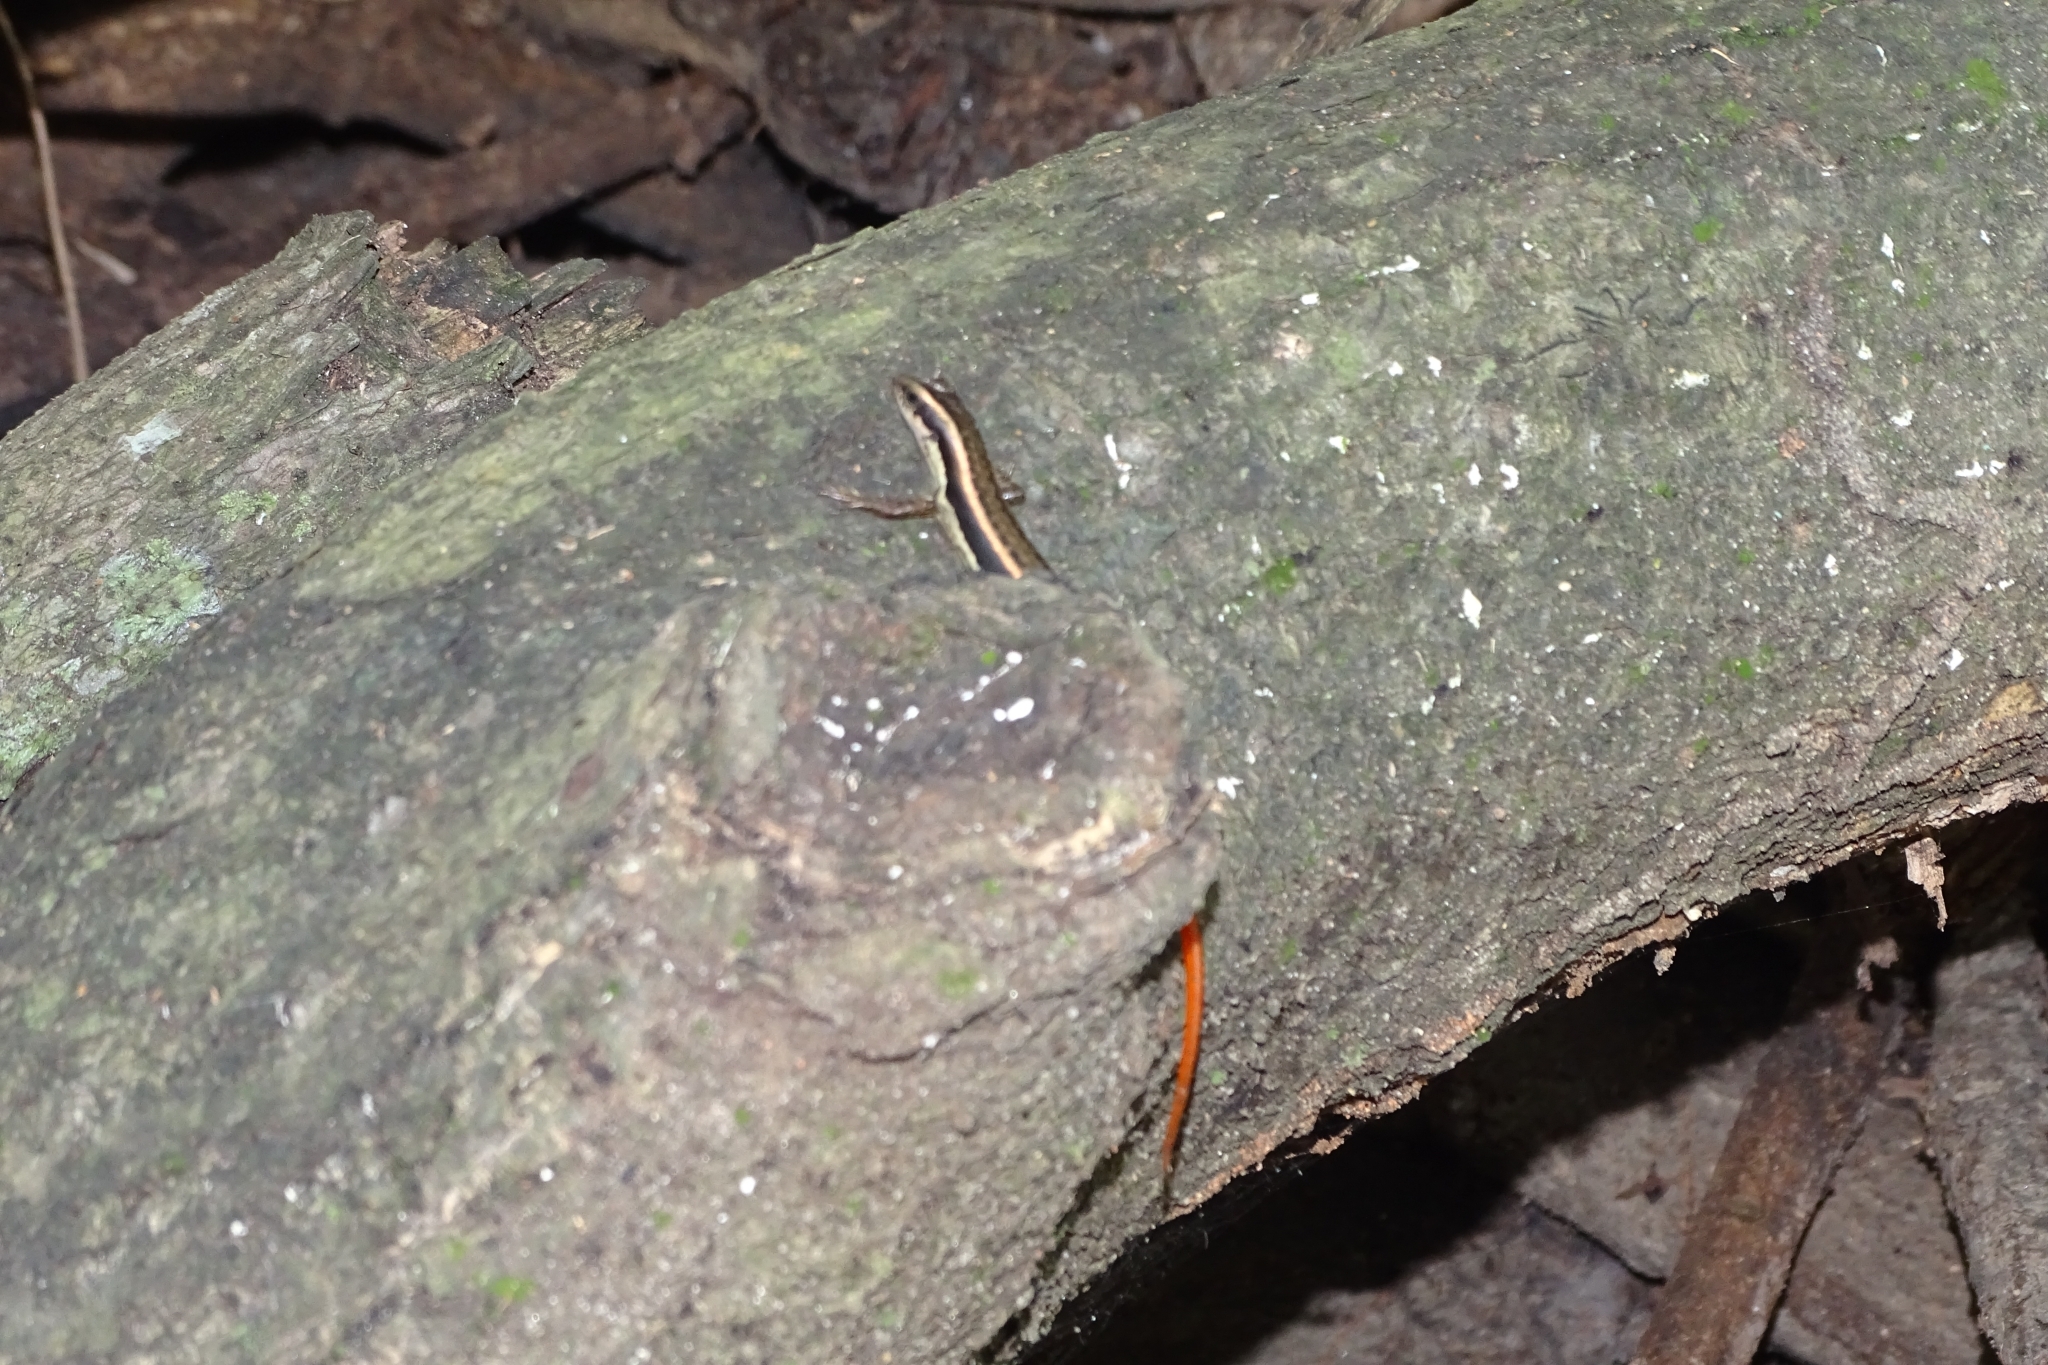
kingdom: Animalia
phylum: Chordata
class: Squamata
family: Scincidae
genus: Sphenomorphus
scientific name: Sphenomorphus dussumieri
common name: Dussumier's forest skink
